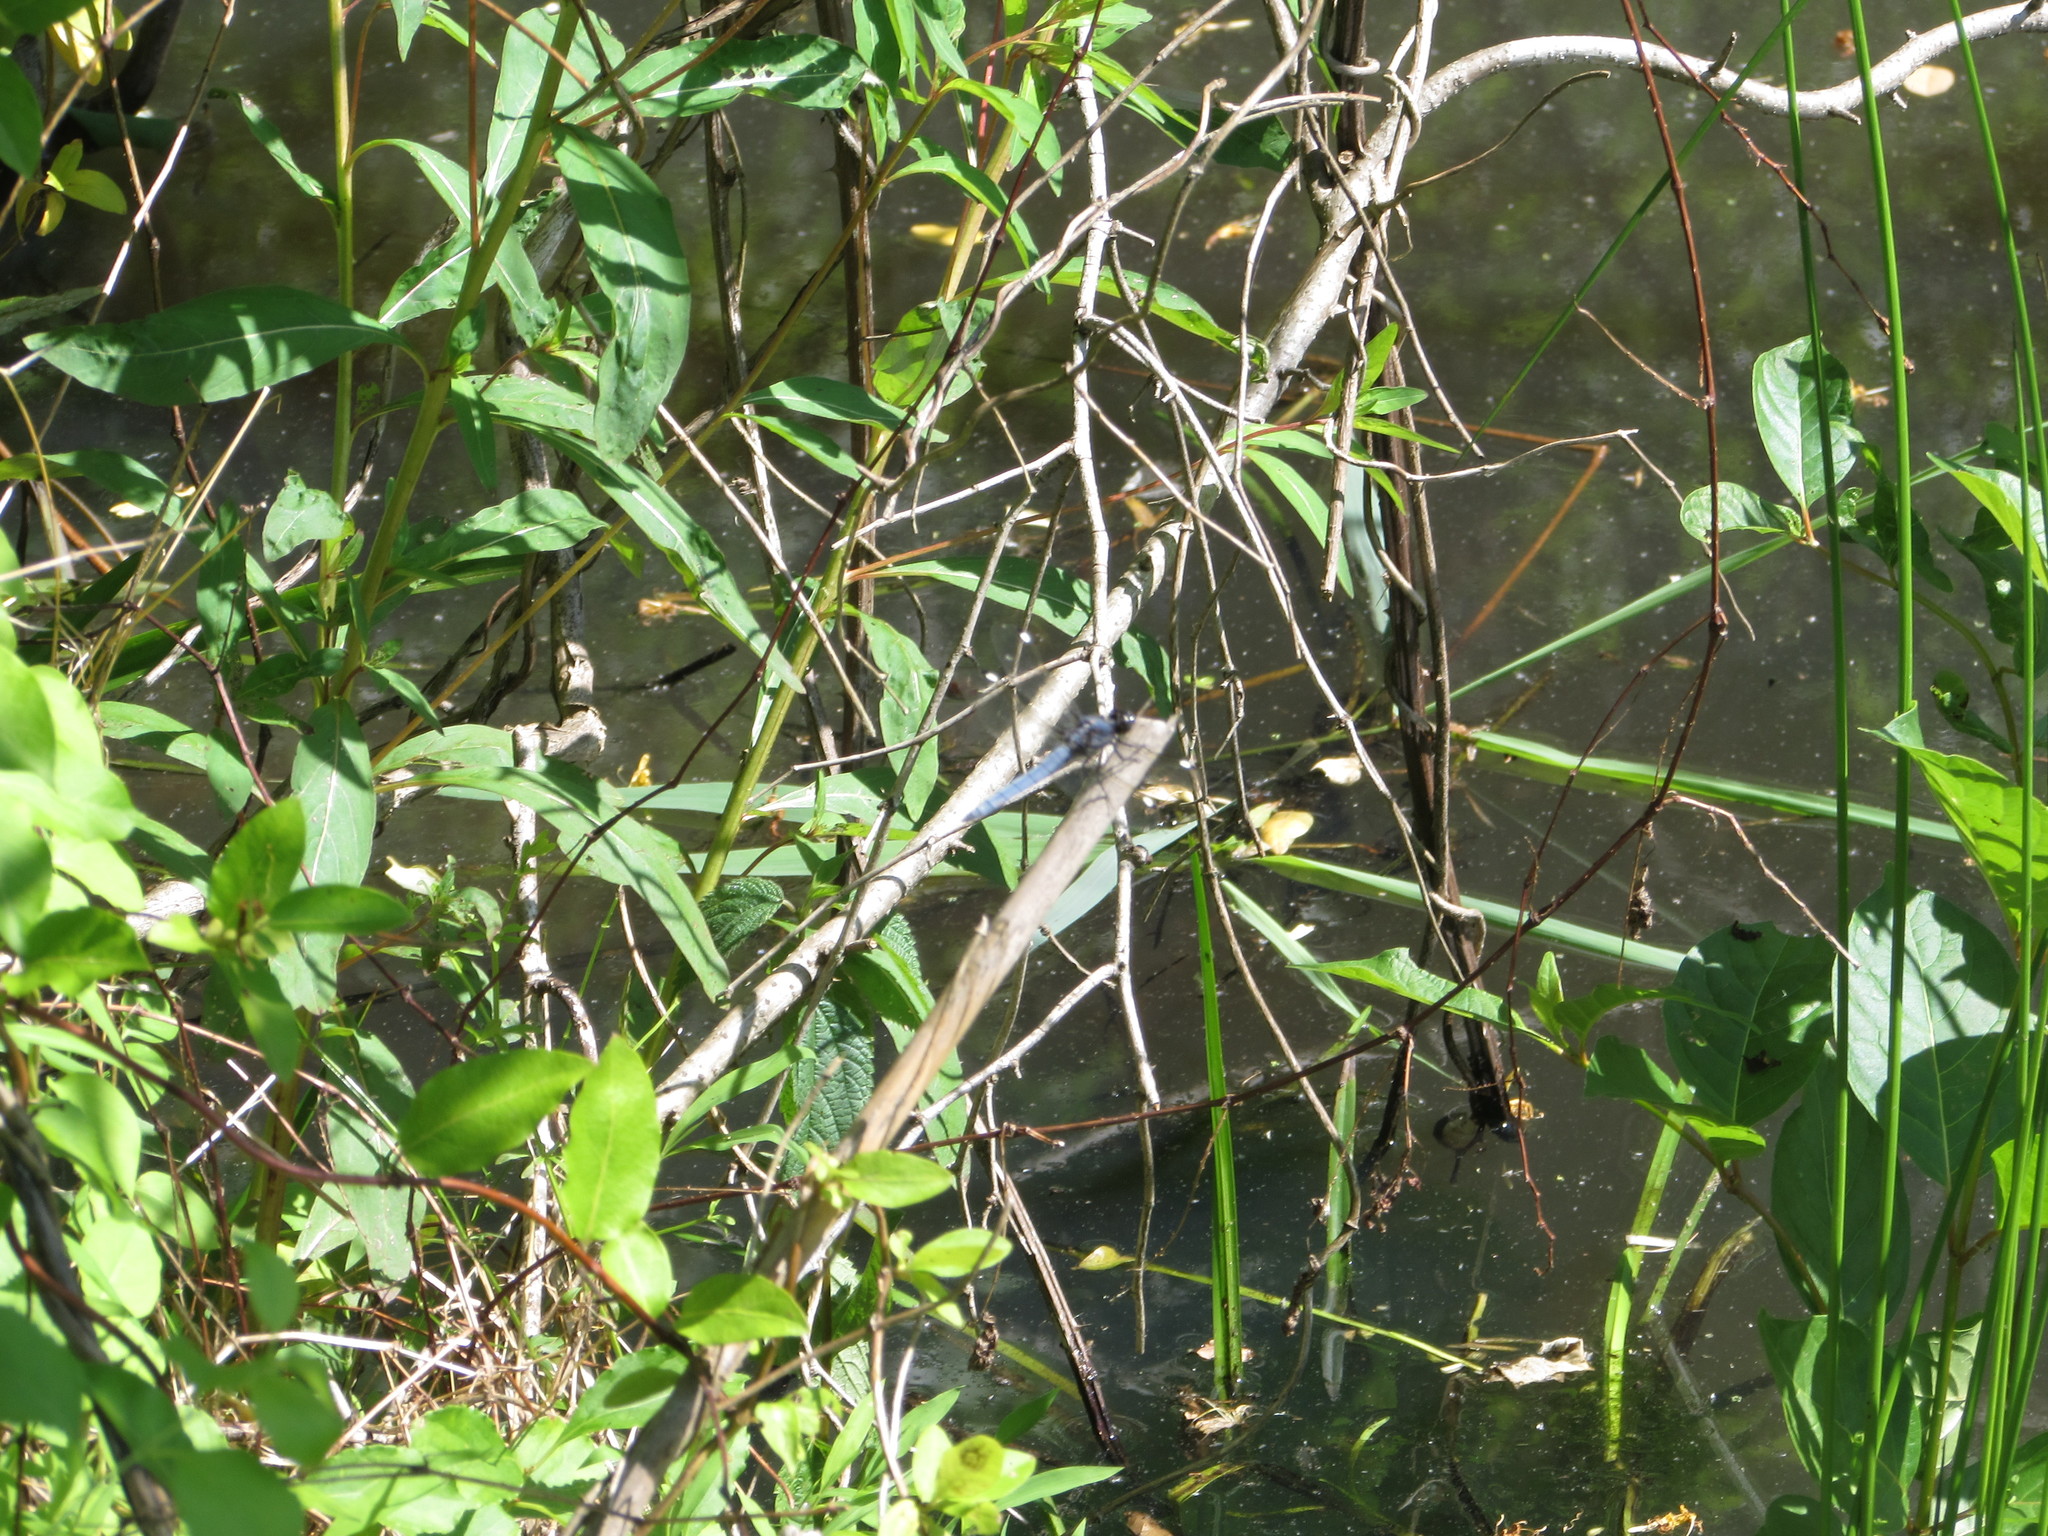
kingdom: Animalia
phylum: Arthropoda
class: Insecta
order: Odonata
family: Libellulidae
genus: Libellula
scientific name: Libellula cyanea
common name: Spangled skimmer
